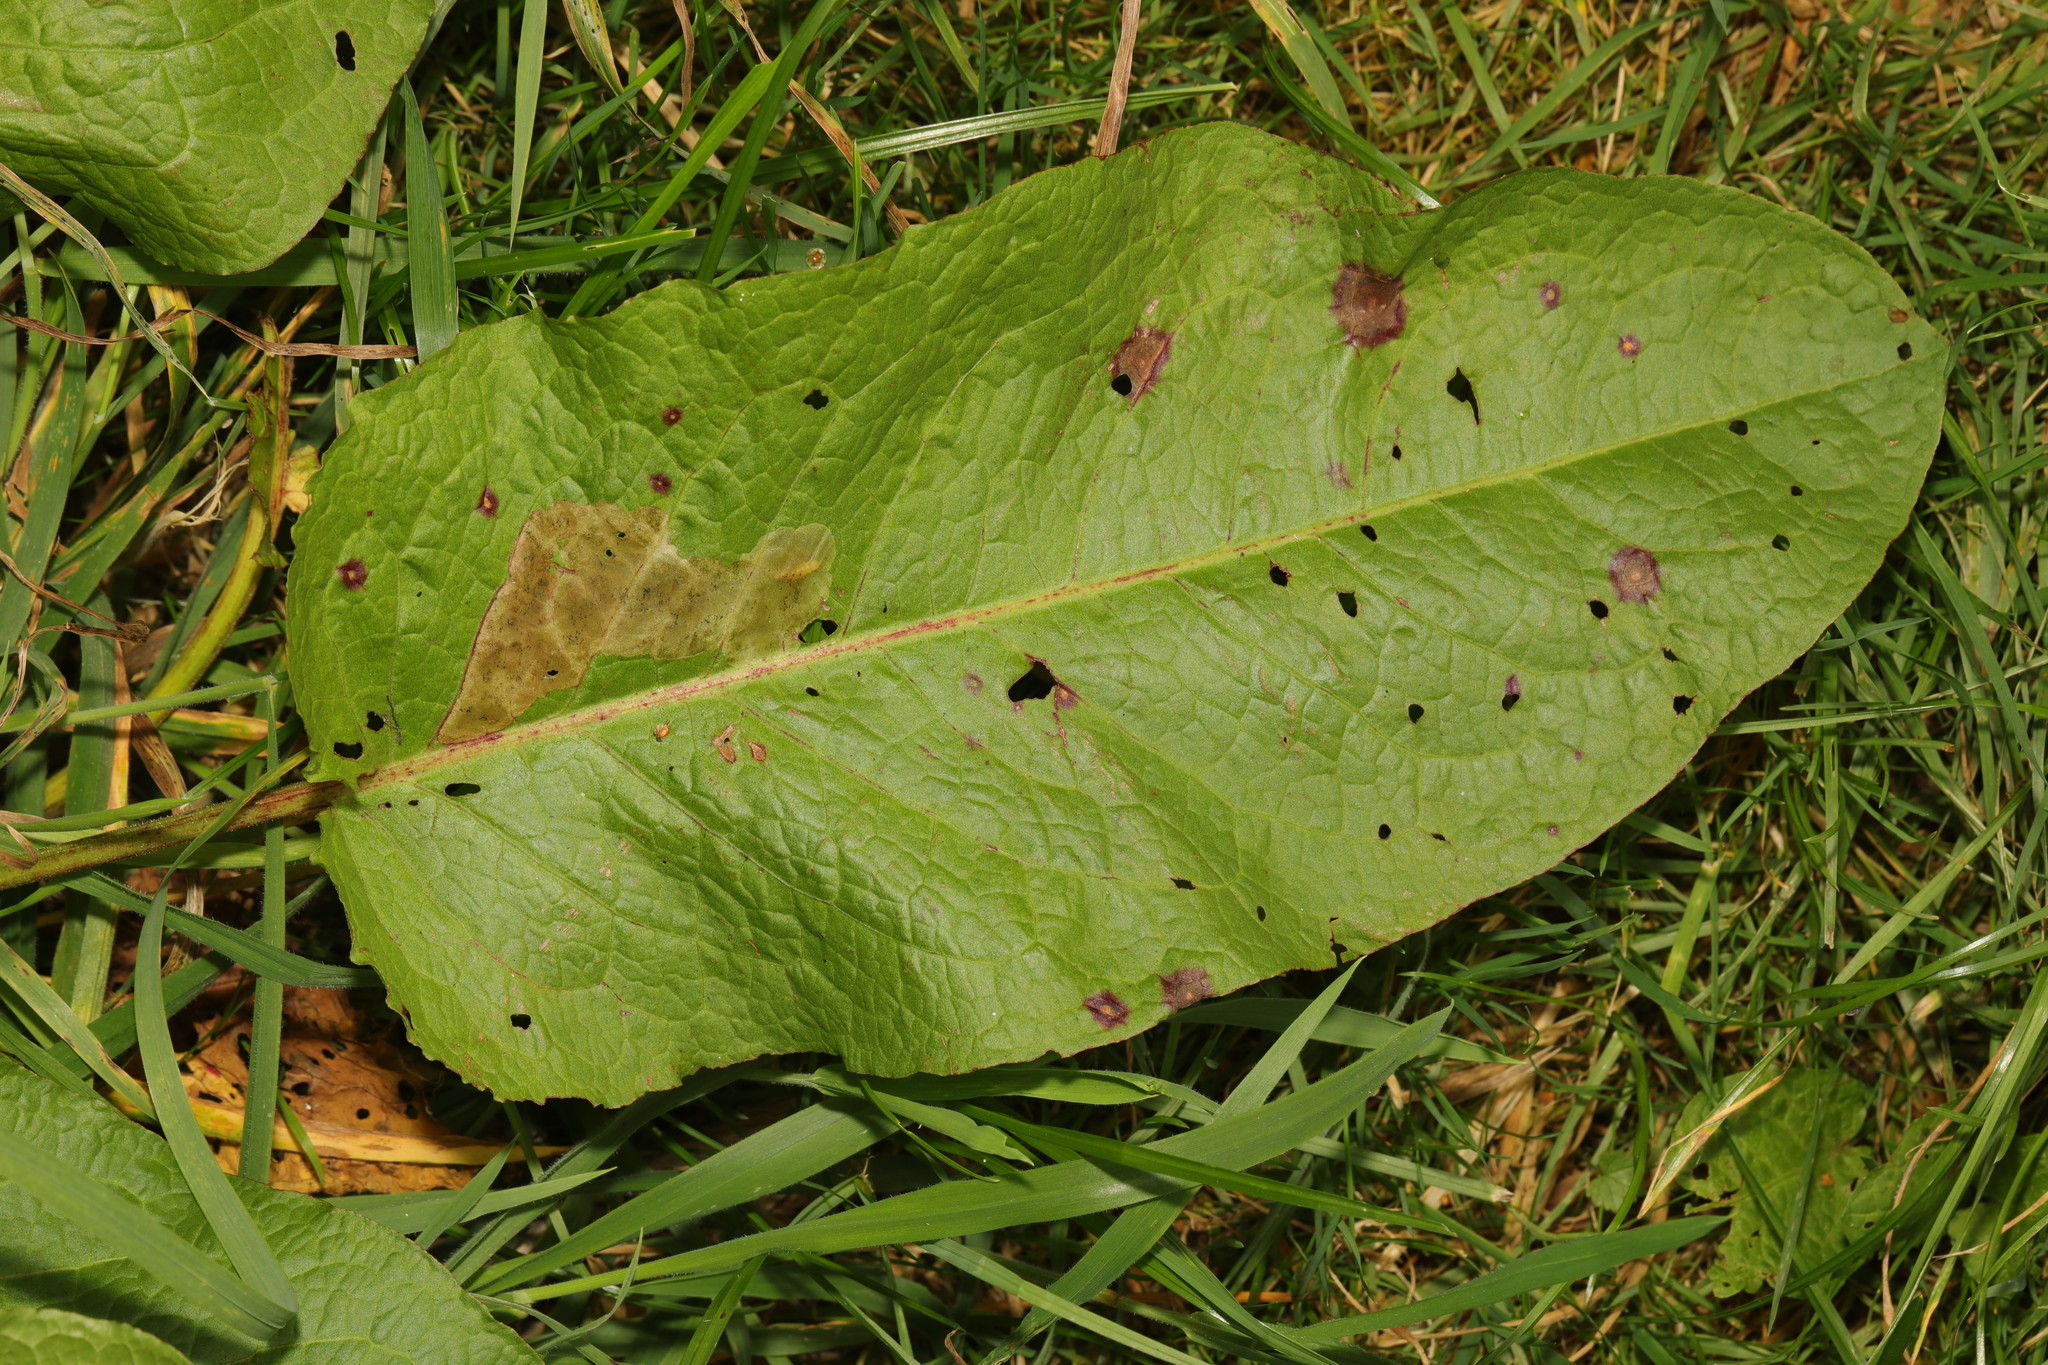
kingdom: Plantae
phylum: Tracheophyta
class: Magnoliopsida
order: Caryophyllales
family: Polygonaceae
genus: Rumex
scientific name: Rumex obtusifolius
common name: Bitter dock
